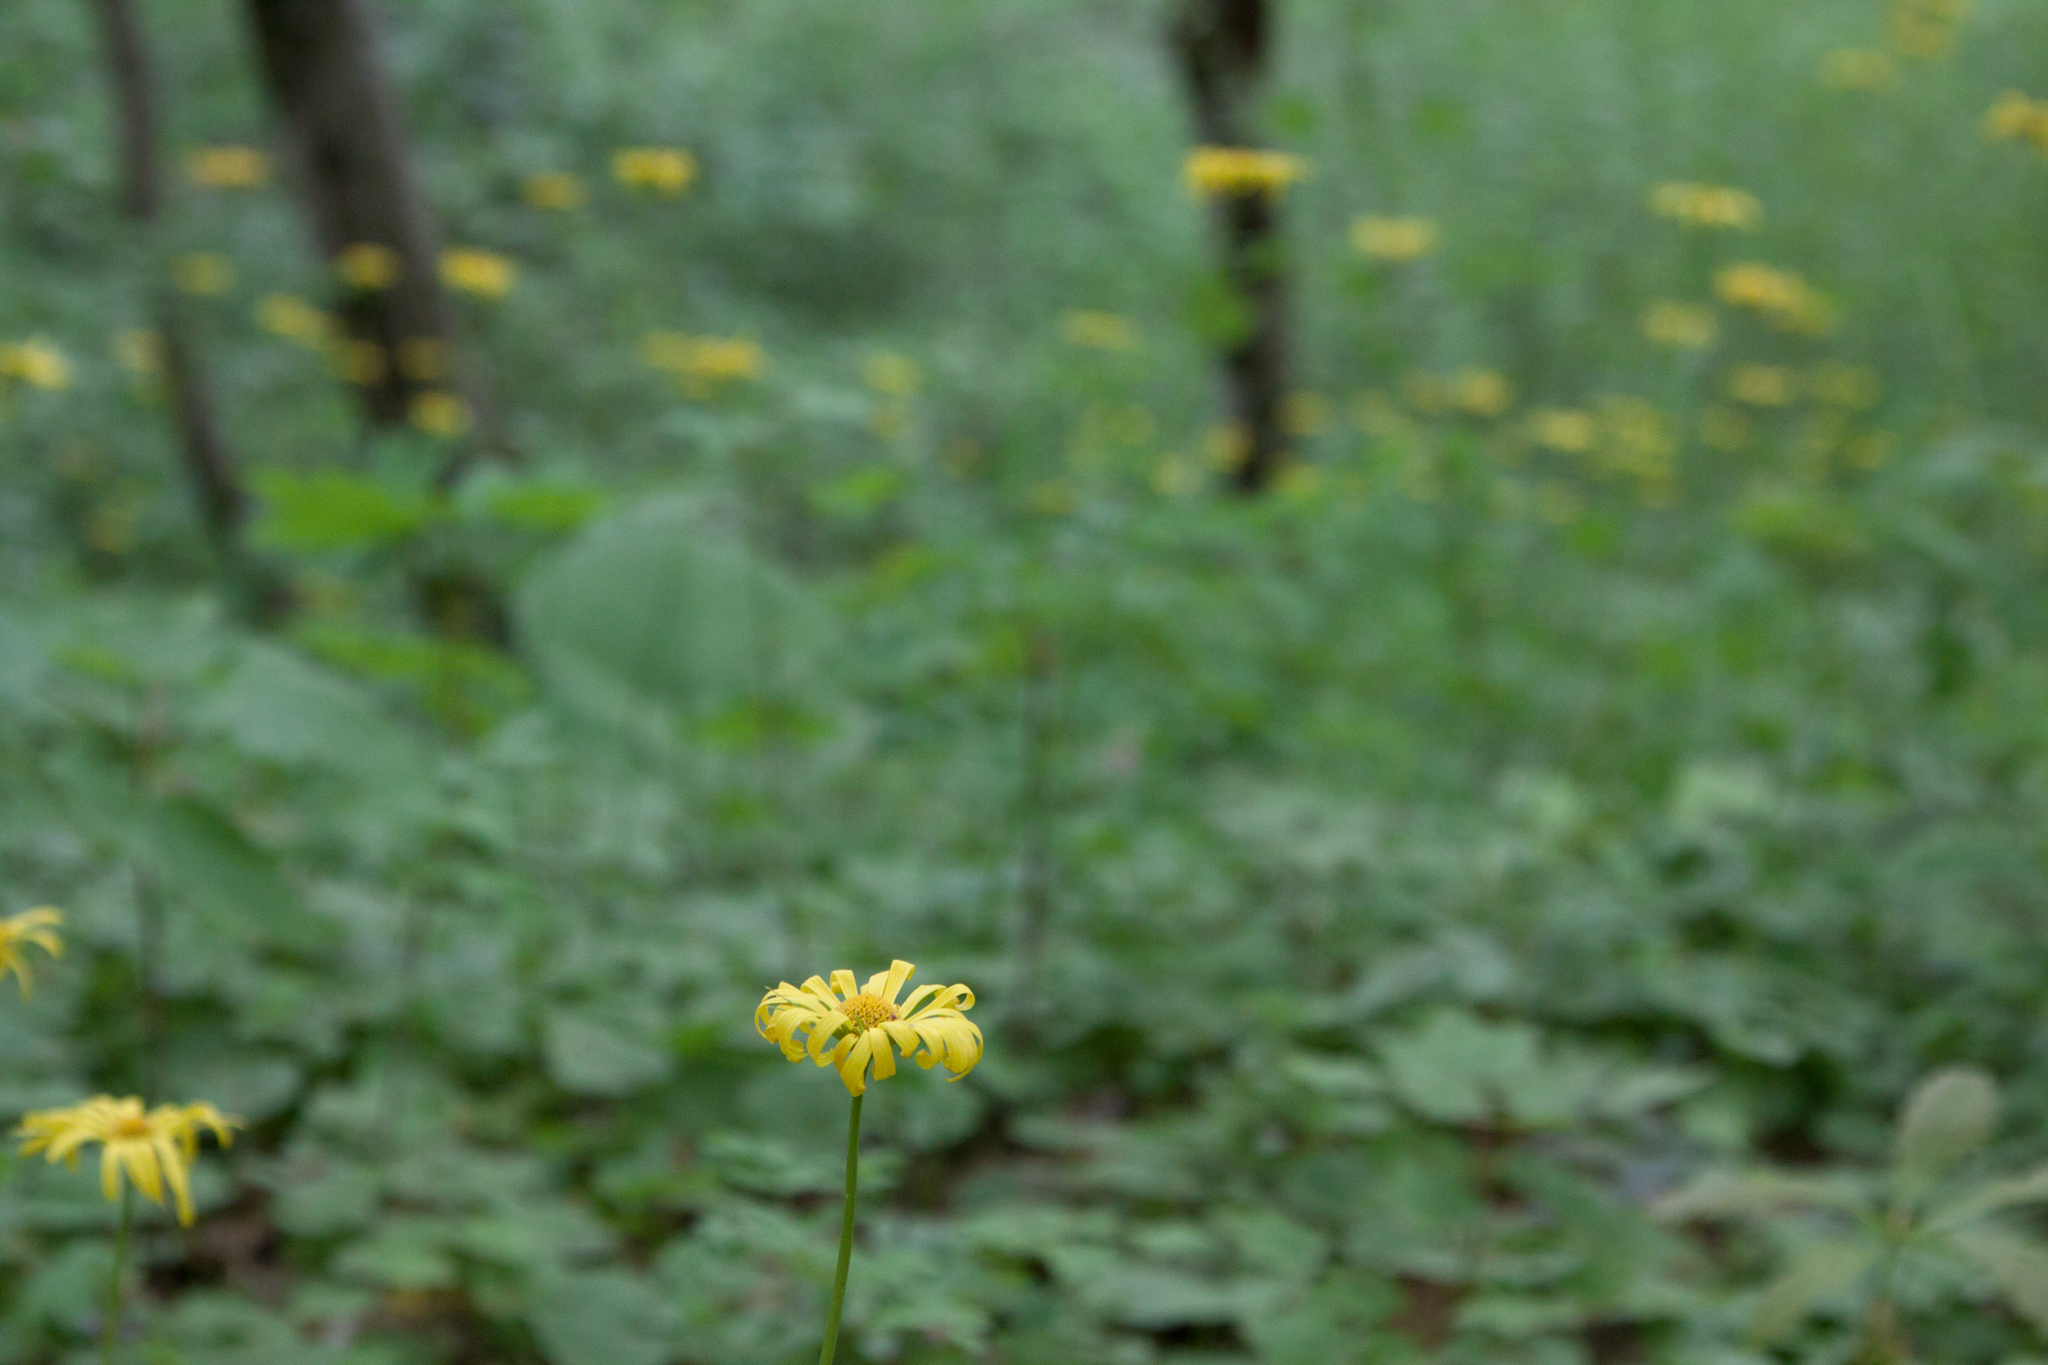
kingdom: Plantae
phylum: Tracheophyta
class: Magnoliopsida
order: Asterales
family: Asteraceae
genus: Doronicum
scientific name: Doronicum
